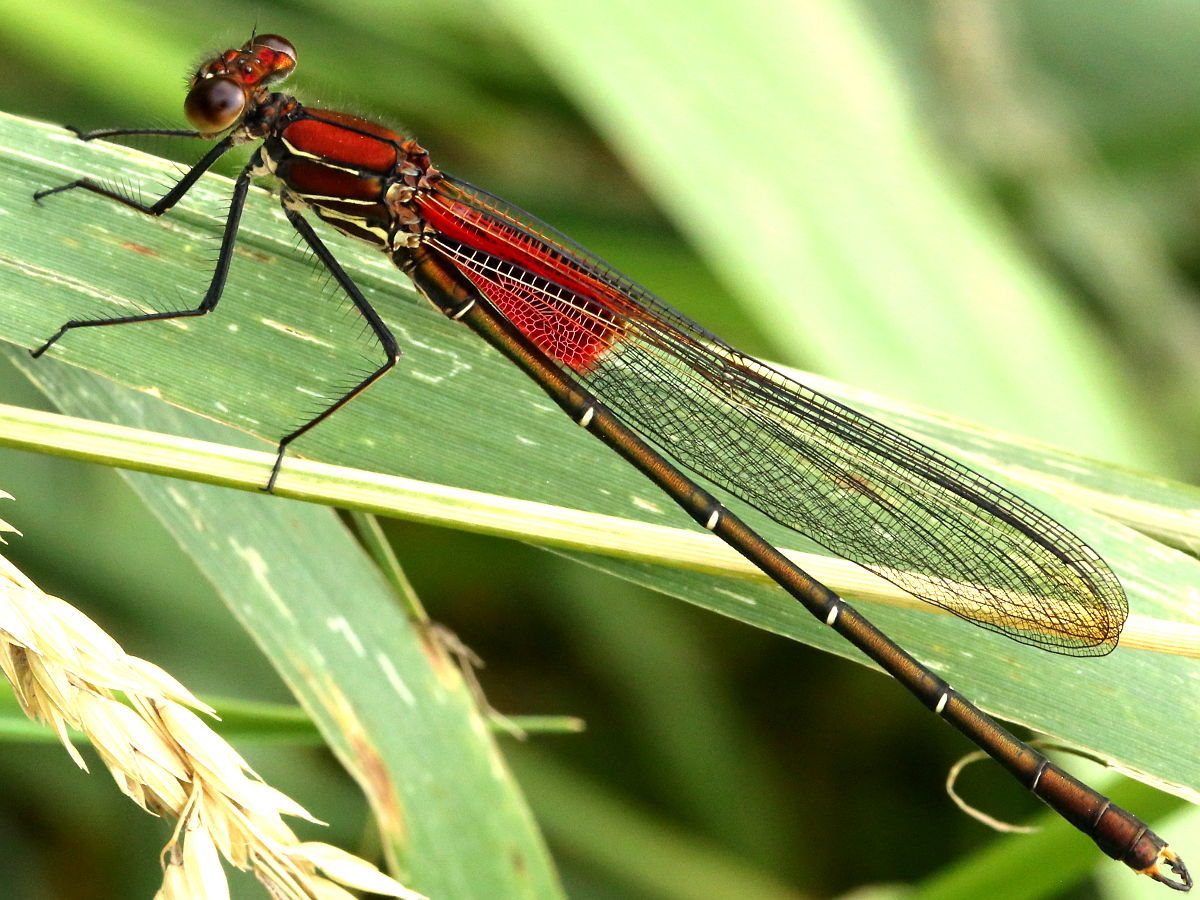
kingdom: Animalia
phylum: Arthropoda
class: Insecta
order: Odonata
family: Calopterygidae
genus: Hetaerina
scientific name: Hetaerina americana
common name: American rubyspot
